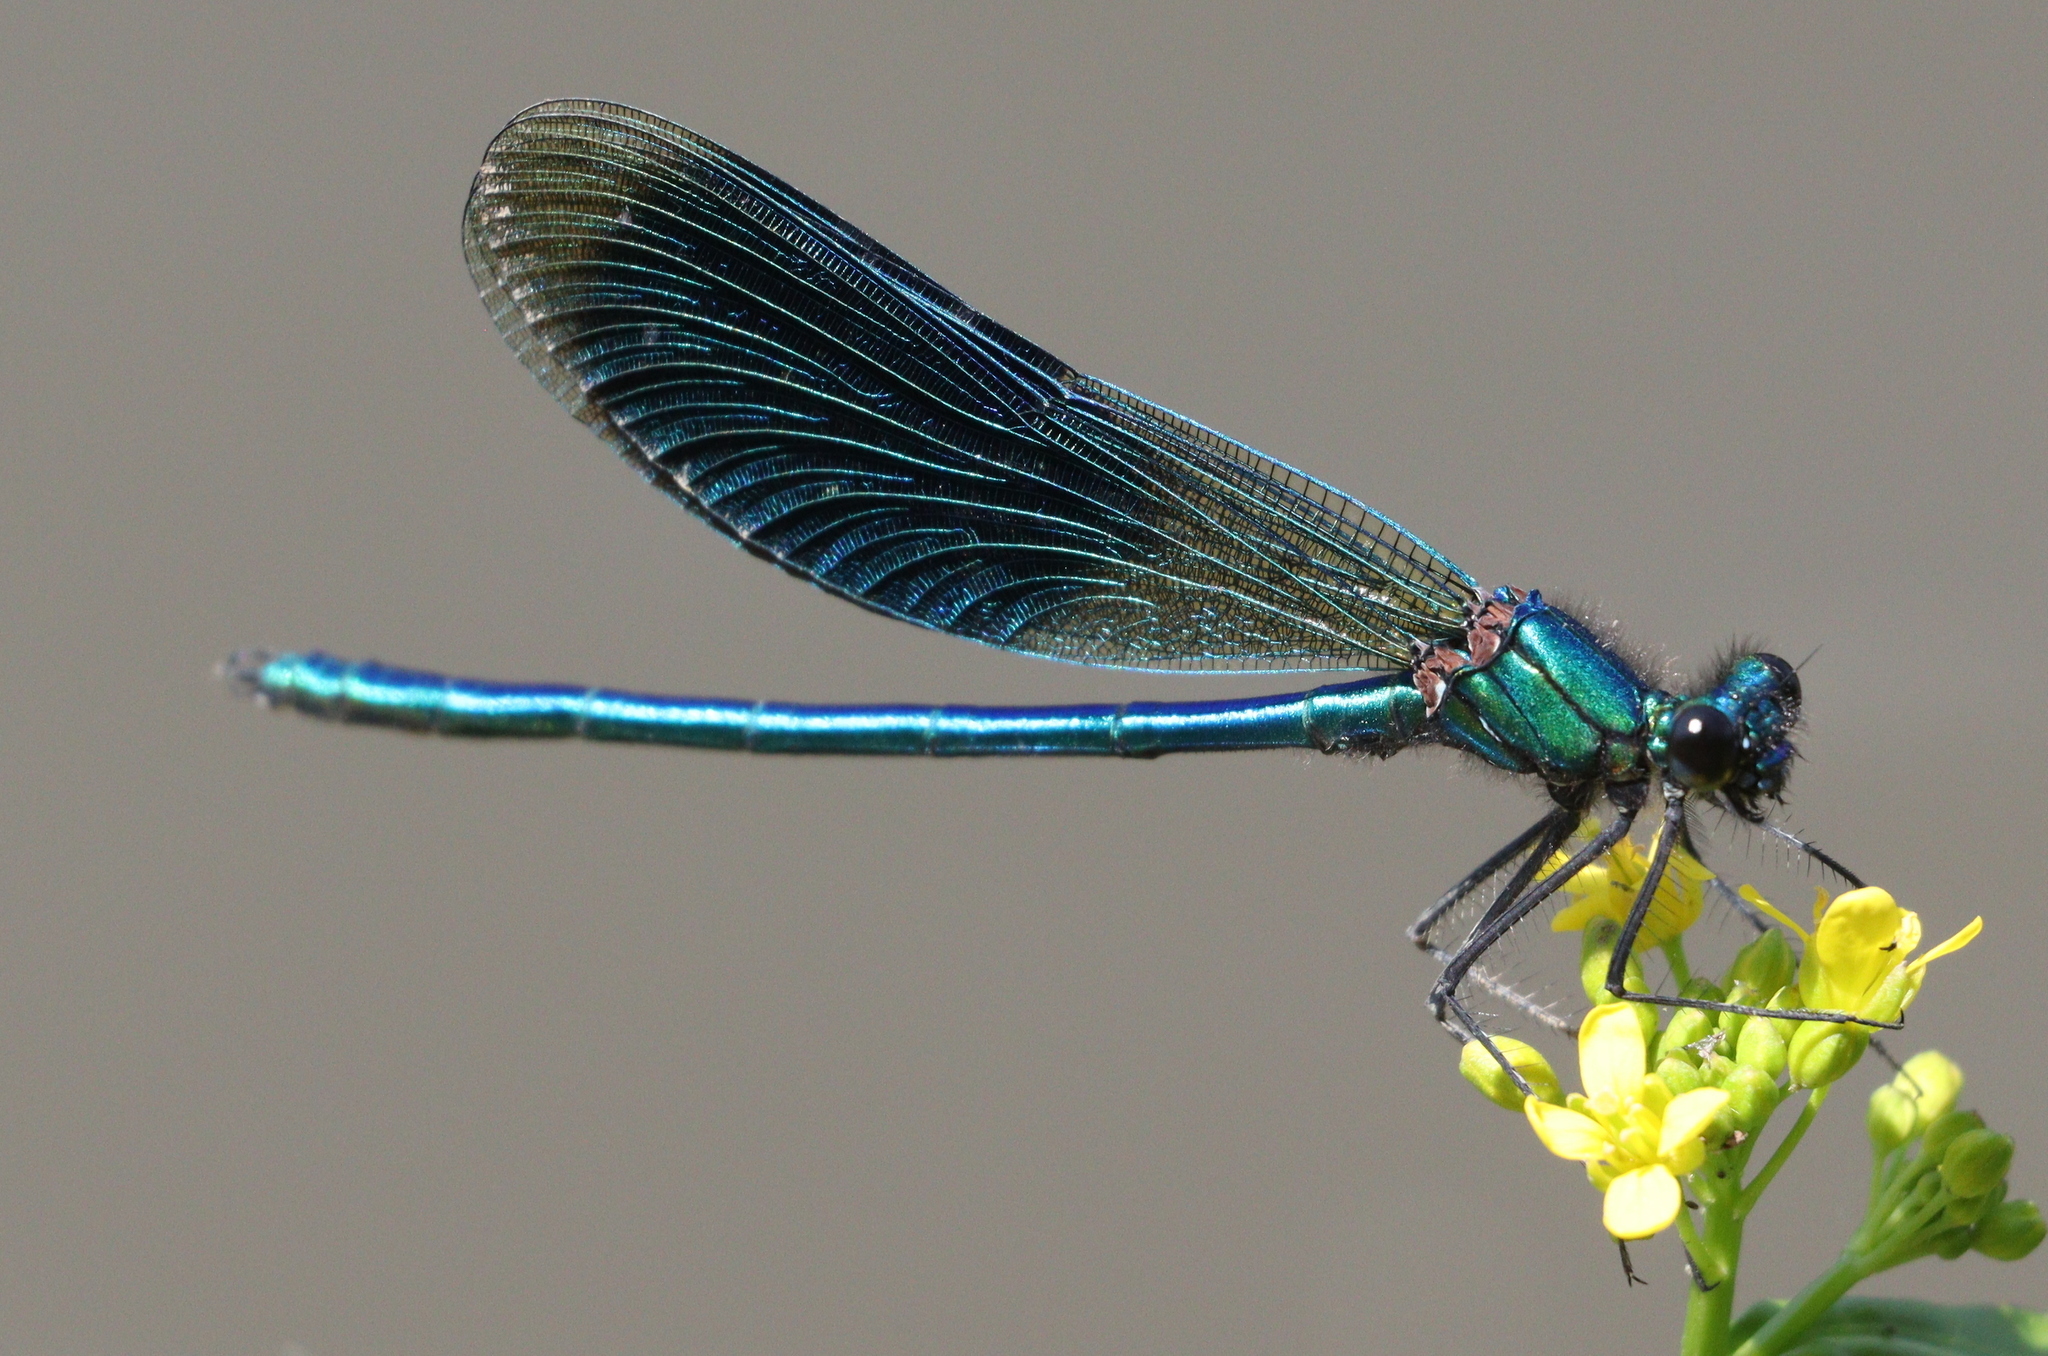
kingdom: Animalia
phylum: Arthropoda
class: Insecta
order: Odonata
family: Calopterygidae
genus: Calopteryx
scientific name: Calopteryx splendens
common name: Banded demoiselle
